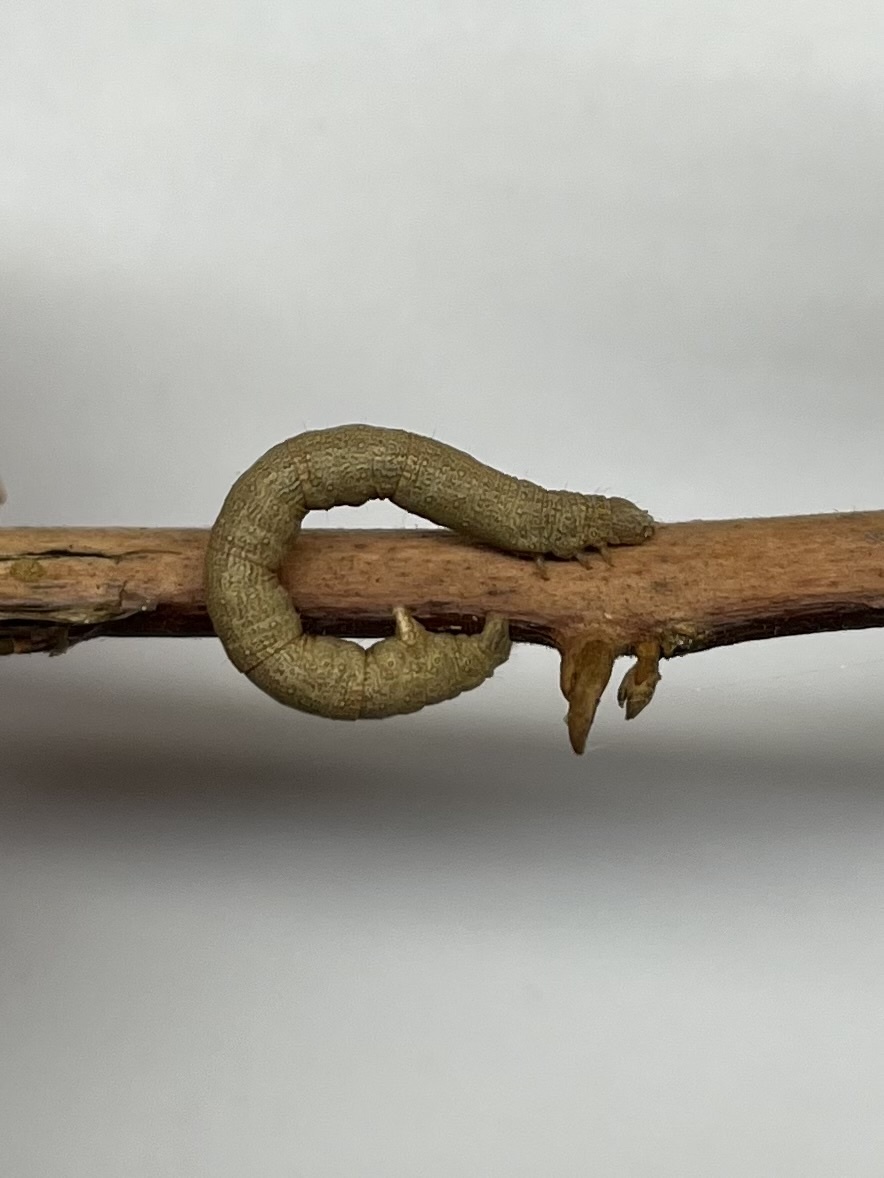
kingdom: Animalia
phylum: Arthropoda
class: Insecta
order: Lepidoptera
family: Geometridae
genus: Disclisioprocta
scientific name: Disclisioprocta natalata
